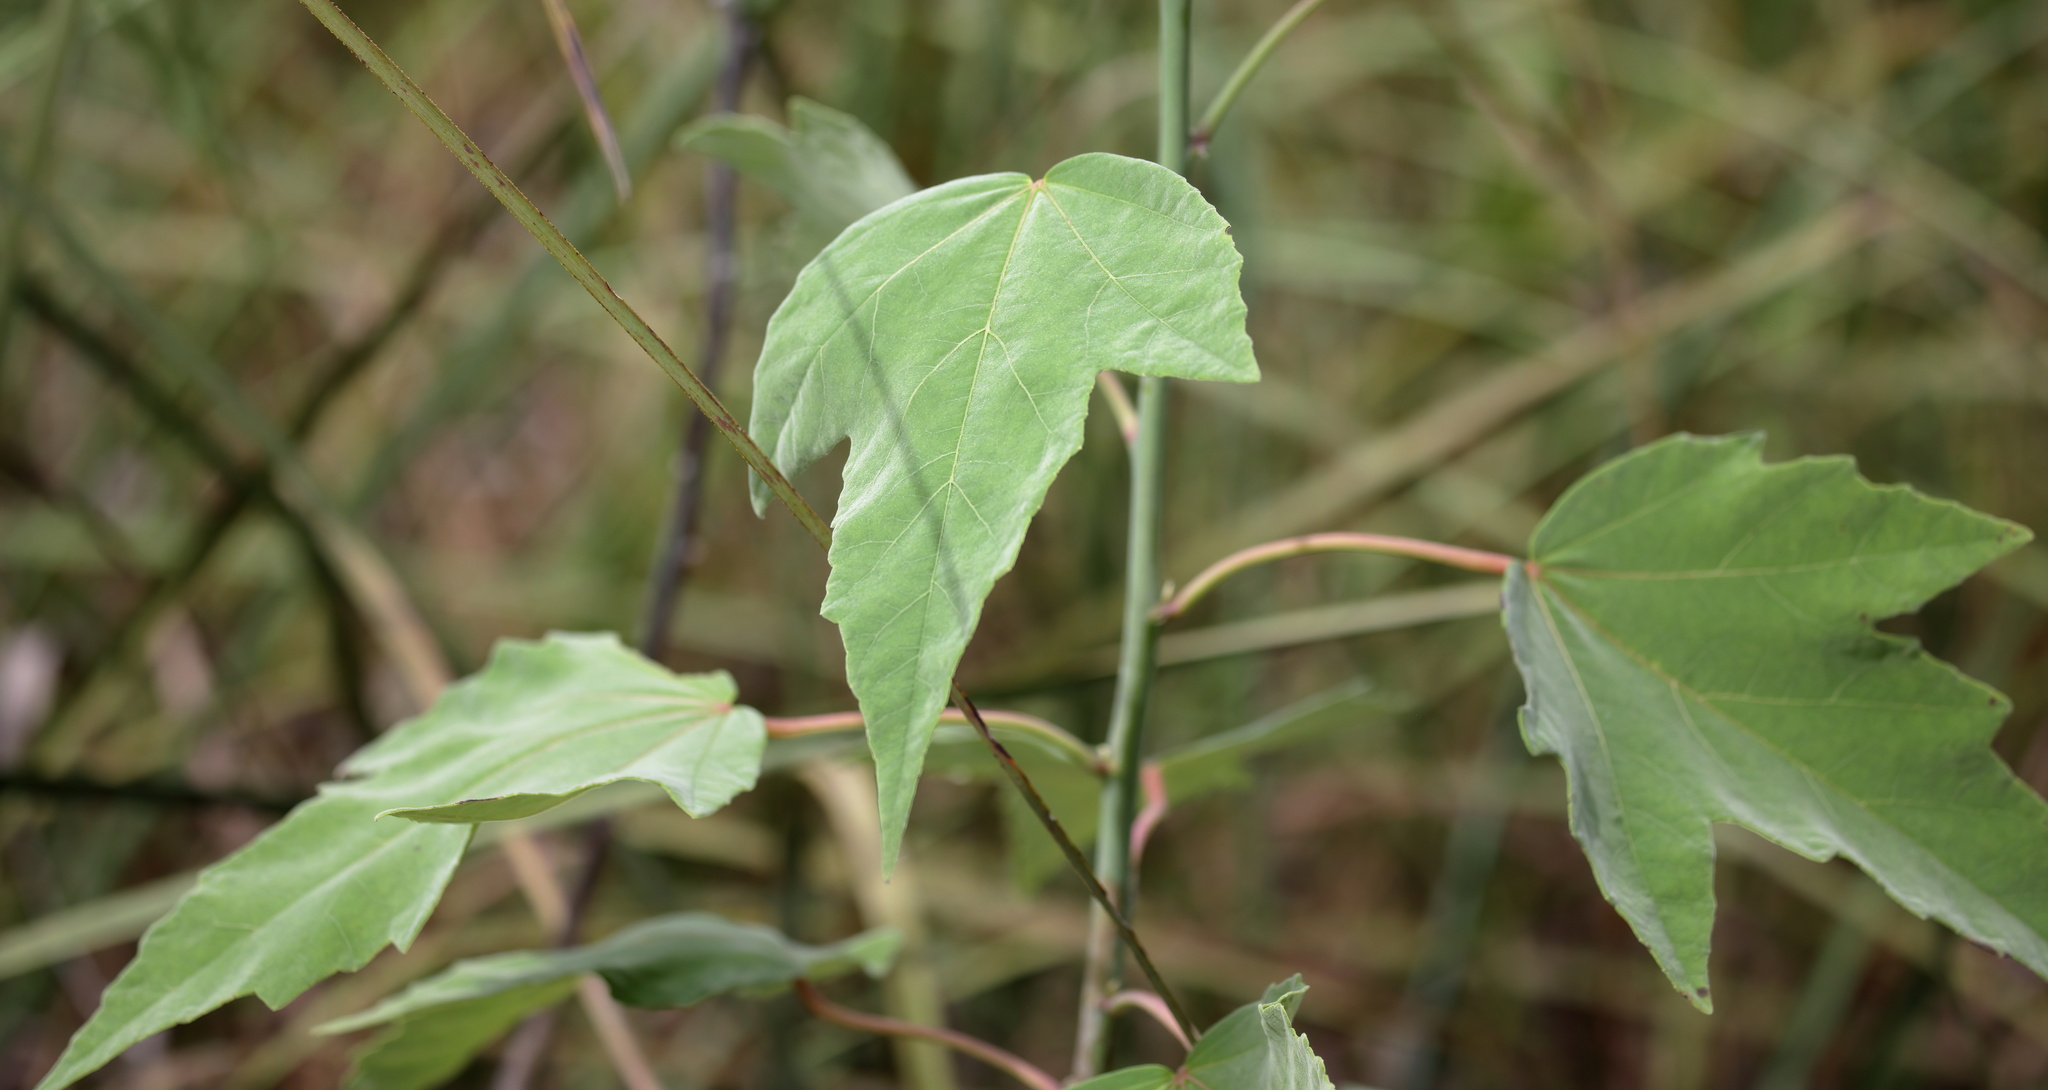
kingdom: Plantae
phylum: Tracheophyta
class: Magnoliopsida
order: Malvales
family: Malvaceae
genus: Hibiscus
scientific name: Hibiscus grandiflorus
